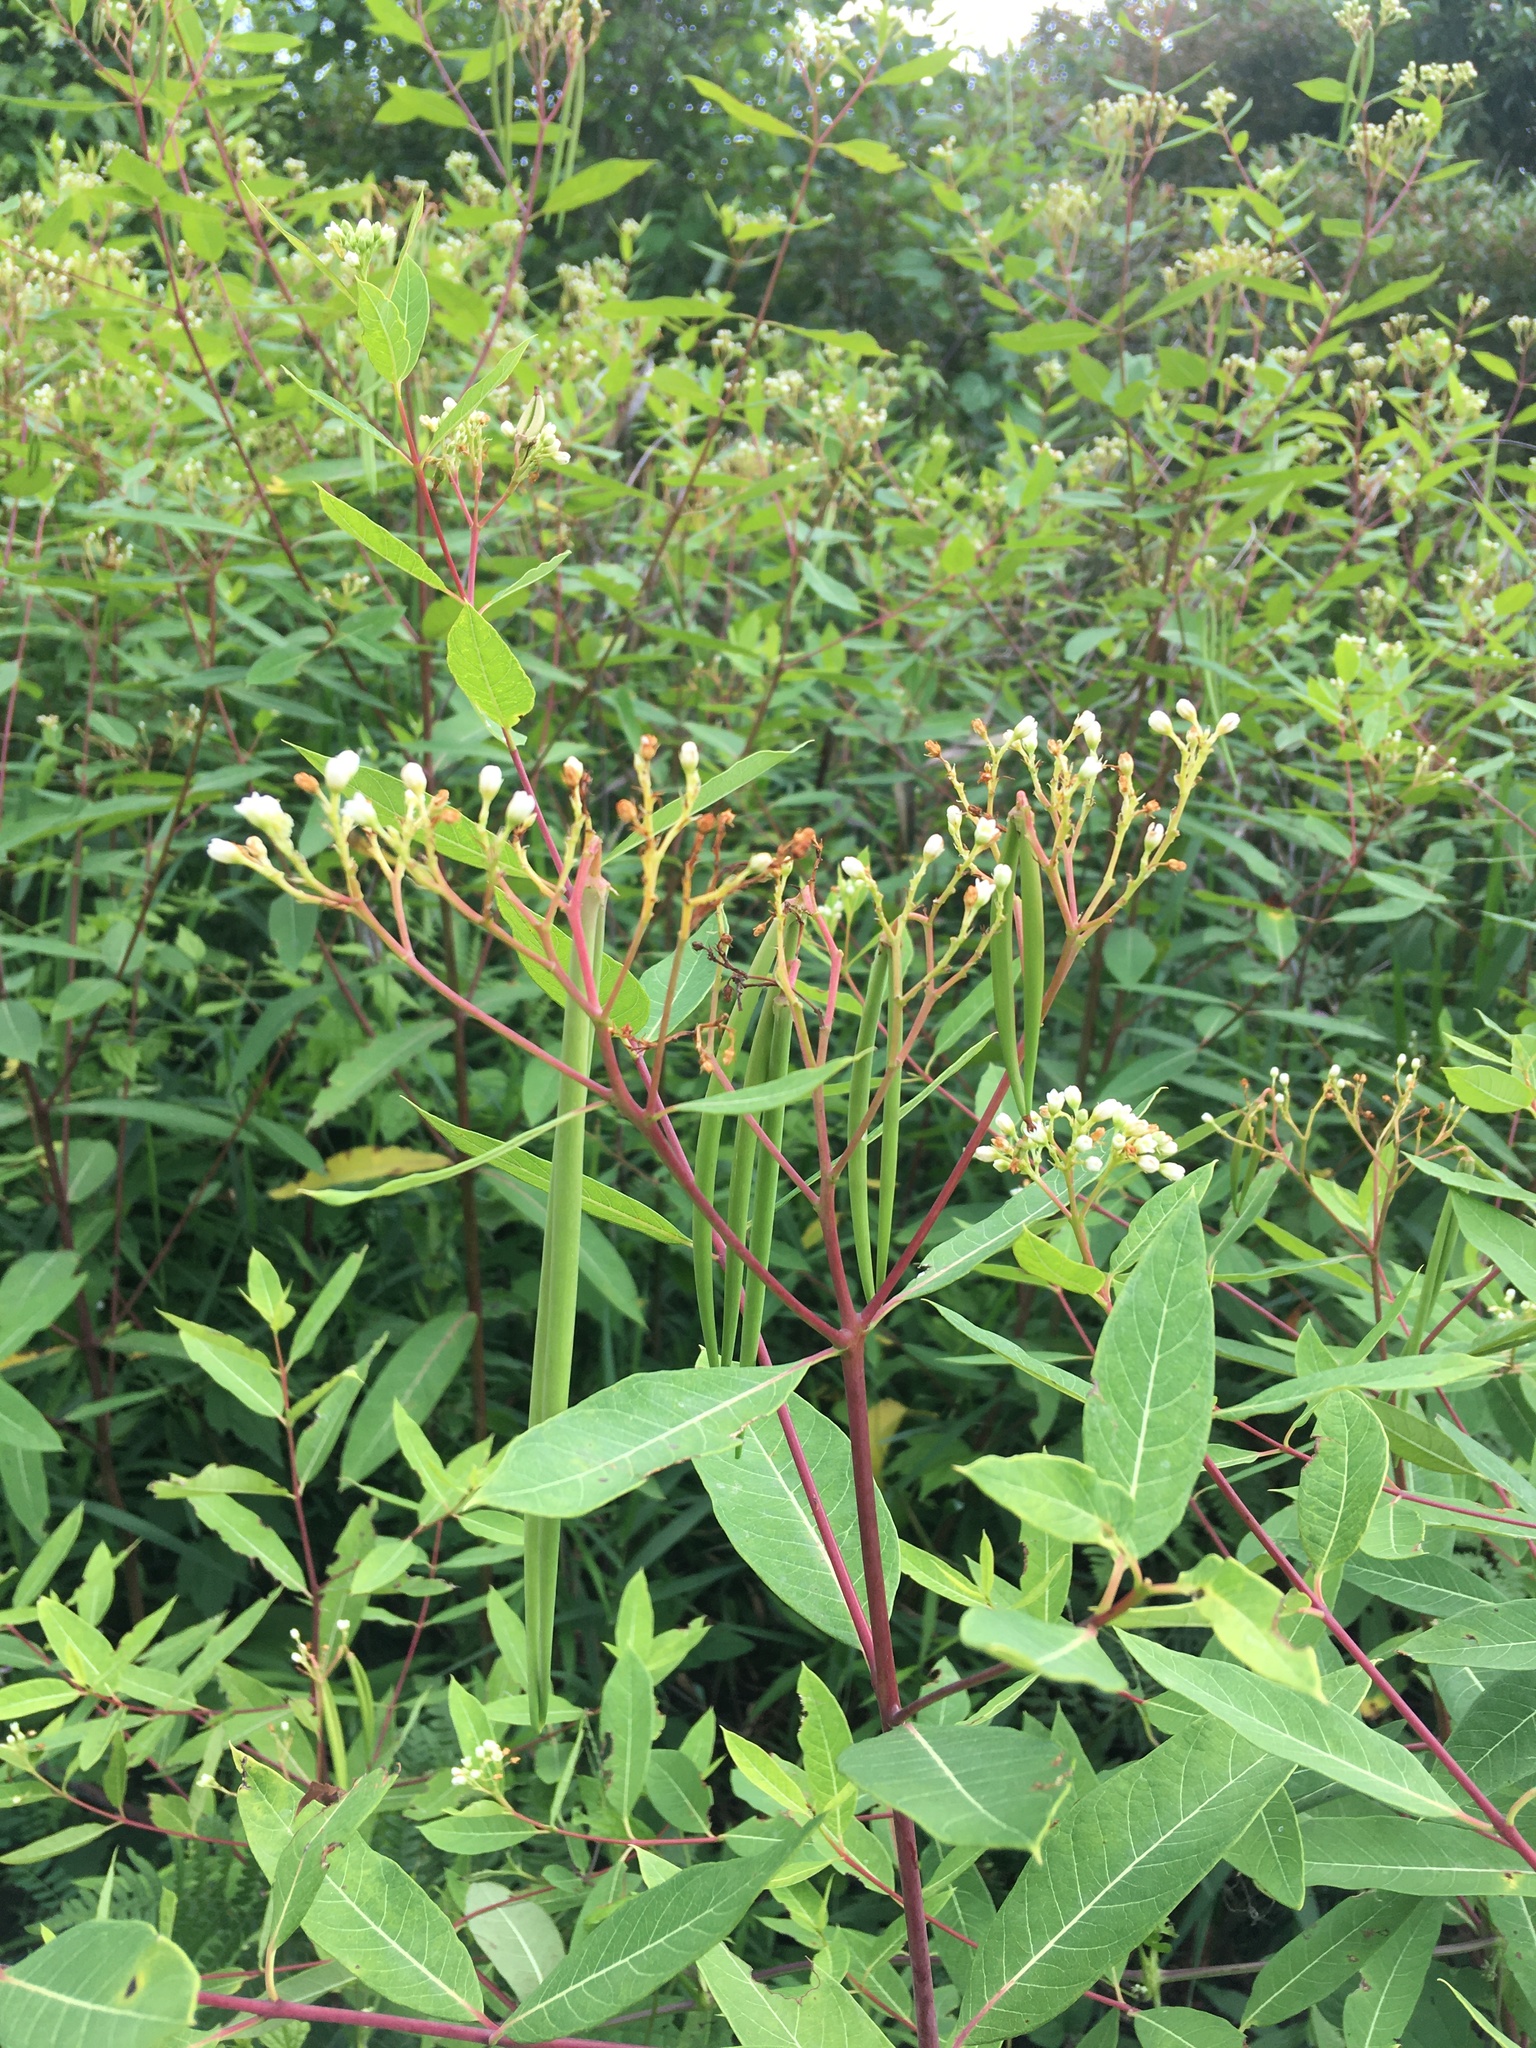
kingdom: Plantae
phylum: Tracheophyta
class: Magnoliopsida
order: Gentianales
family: Apocynaceae
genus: Apocynum
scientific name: Apocynum cannabinum
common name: Hemp dogbane
